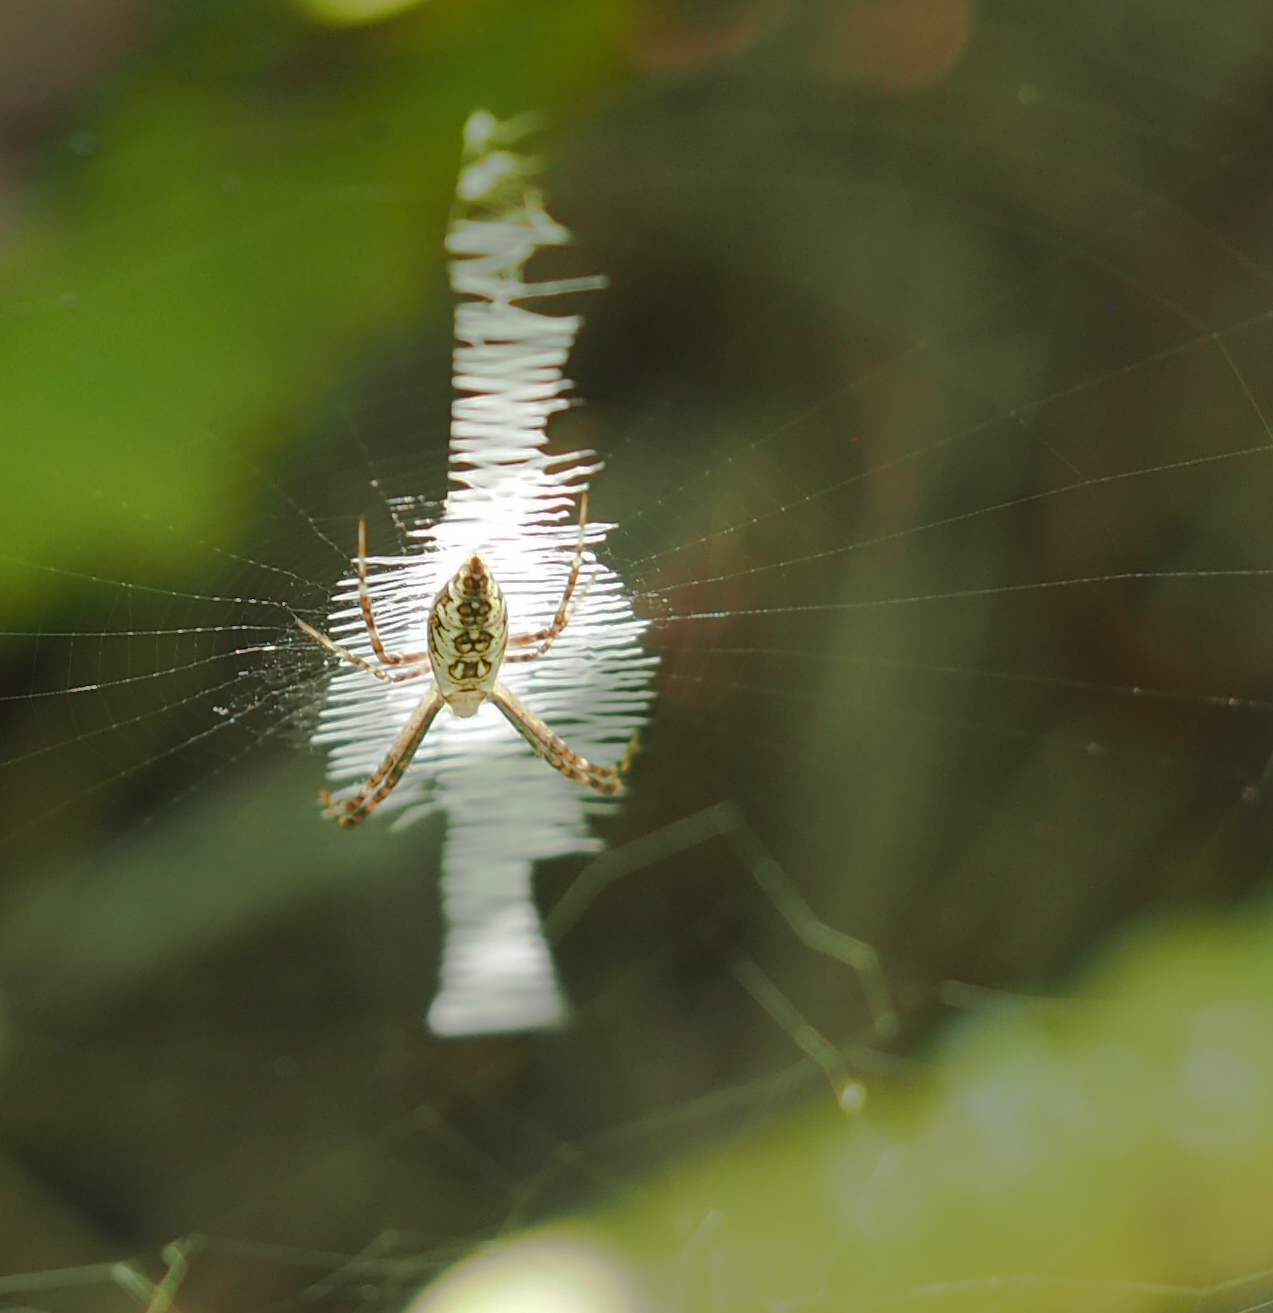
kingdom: Animalia
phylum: Arthropoda
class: Arachnida
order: Araneae
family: Araneidae
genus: Argiope
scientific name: Argiope aurantia
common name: Orb weavers
